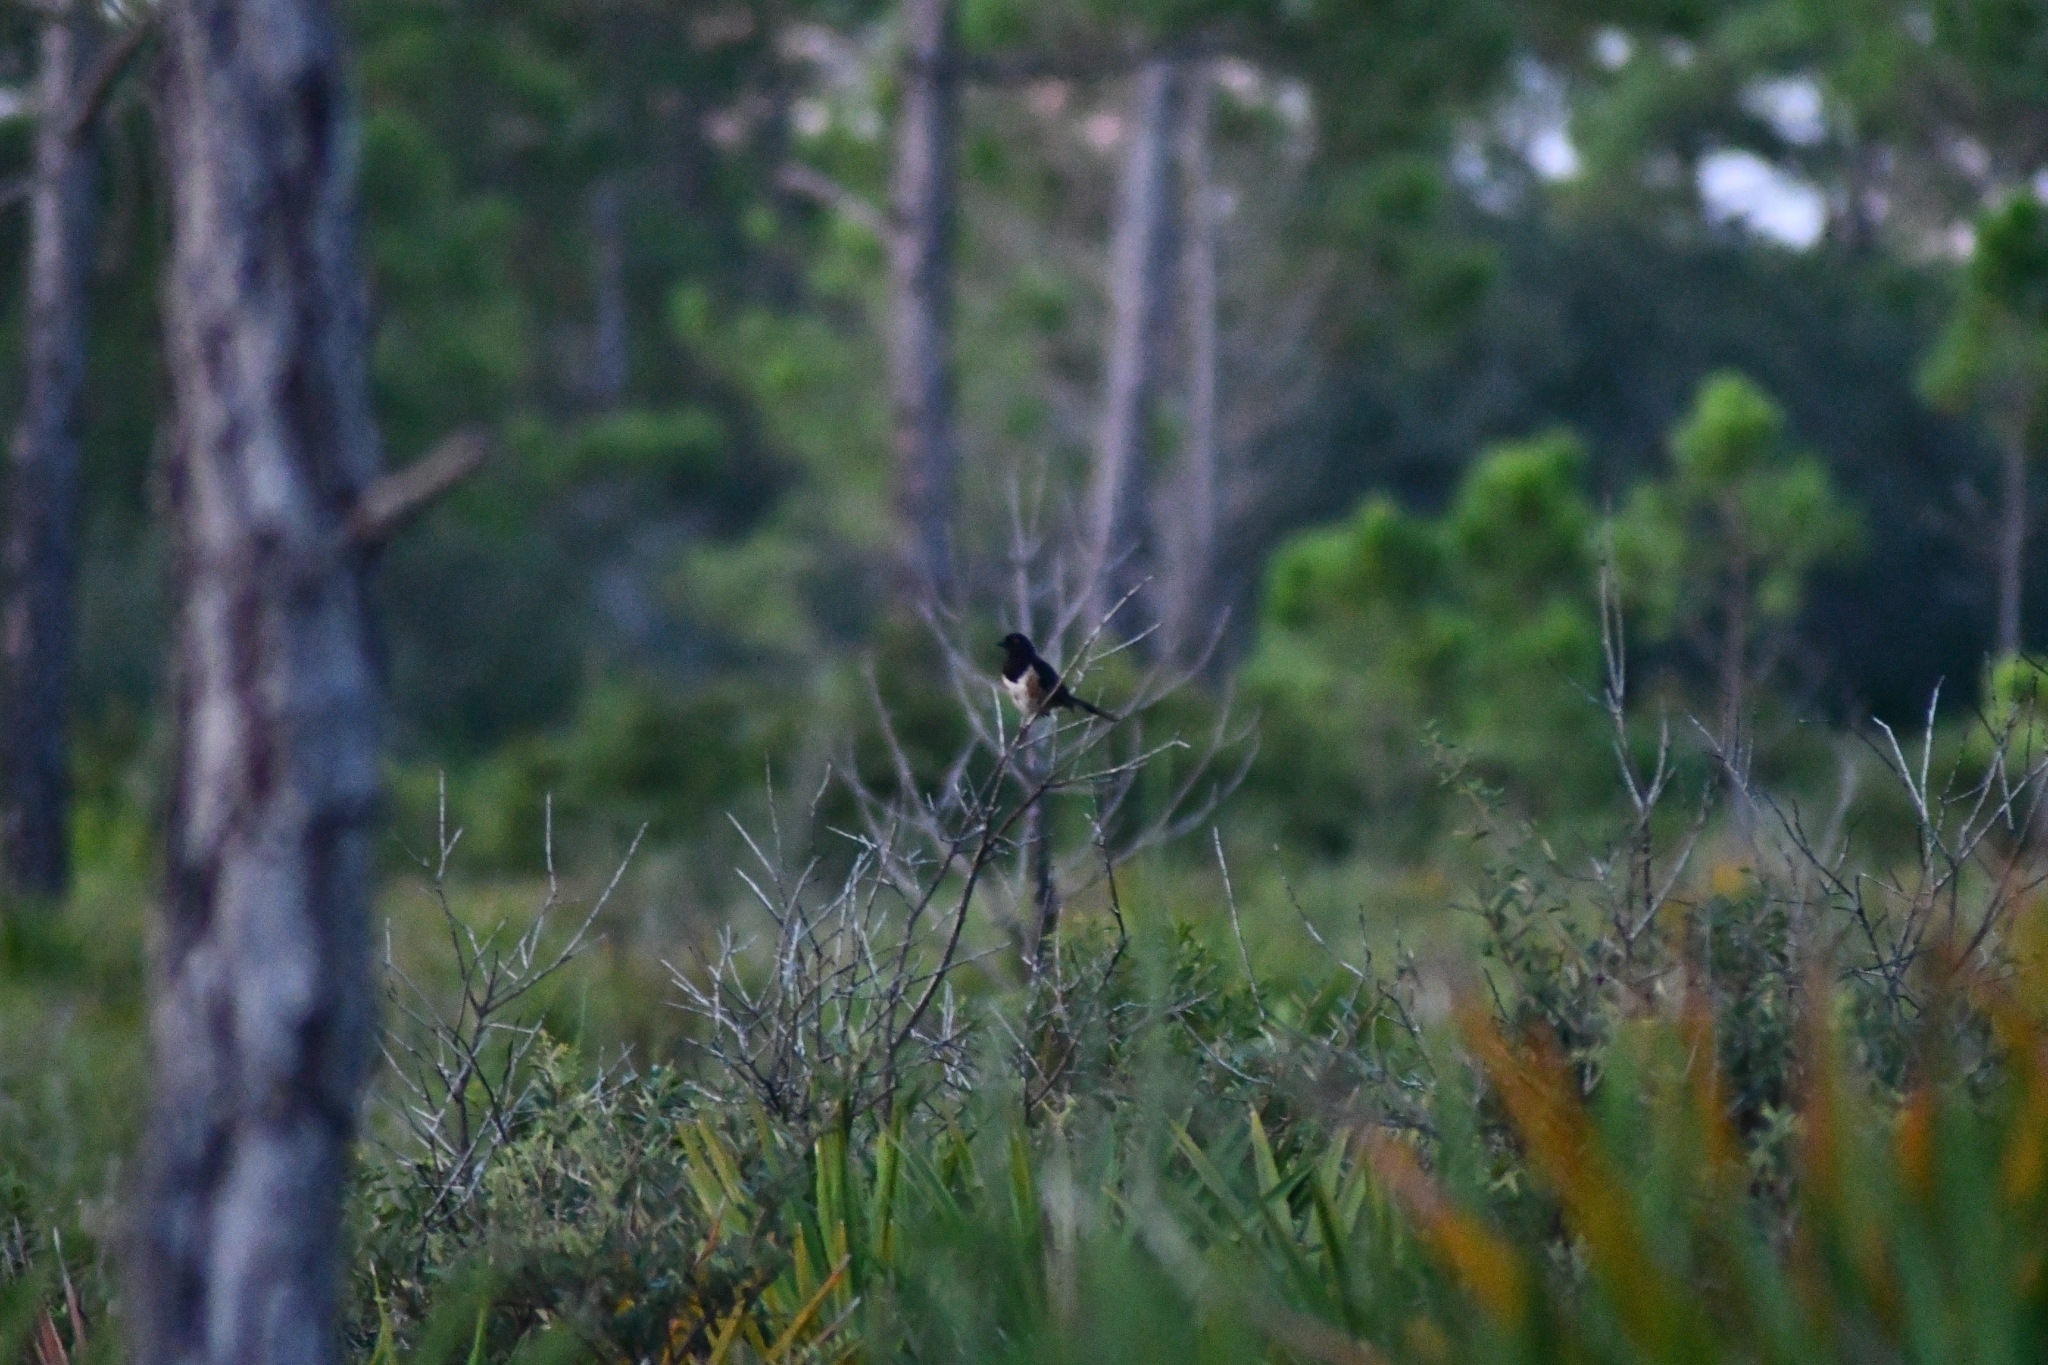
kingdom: Animalia
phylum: Chordata
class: Aves
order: Passeriformes
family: Passerellidae
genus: Pipilo
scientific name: Pipilo erythrophthalmus
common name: Eastern towhee
